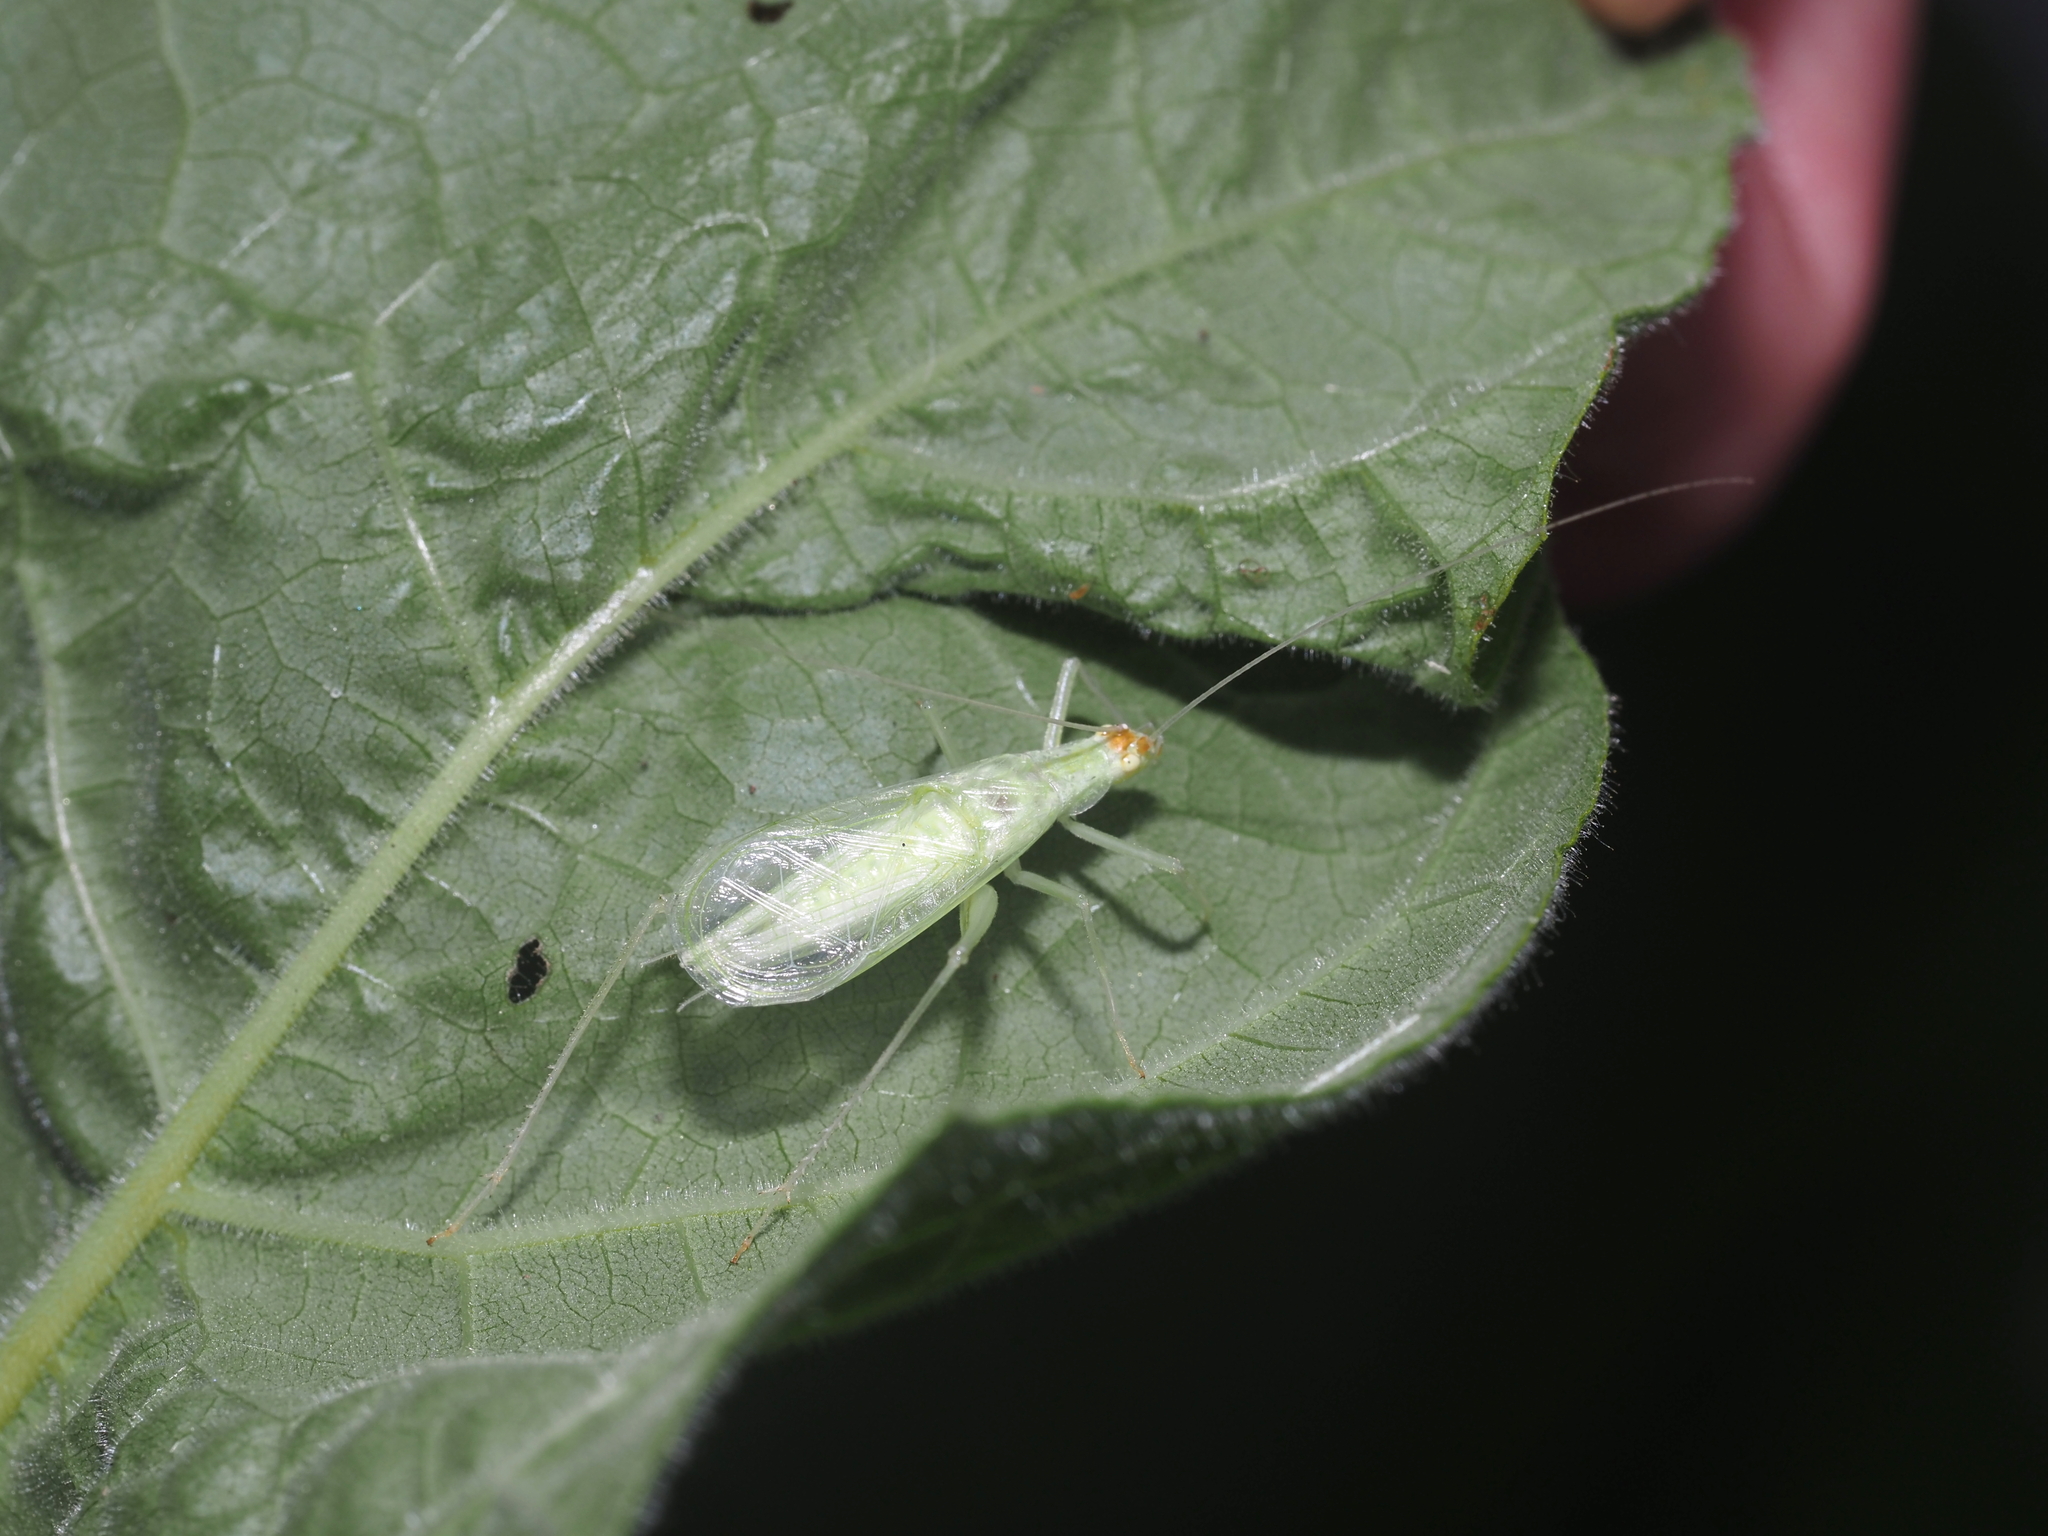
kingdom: Animalia
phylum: Arthropoda
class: Insecta
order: Orthoptera
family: Gryllidae
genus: Oecanthus
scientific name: Oecanthus fultoni
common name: Snowy tree cricket
